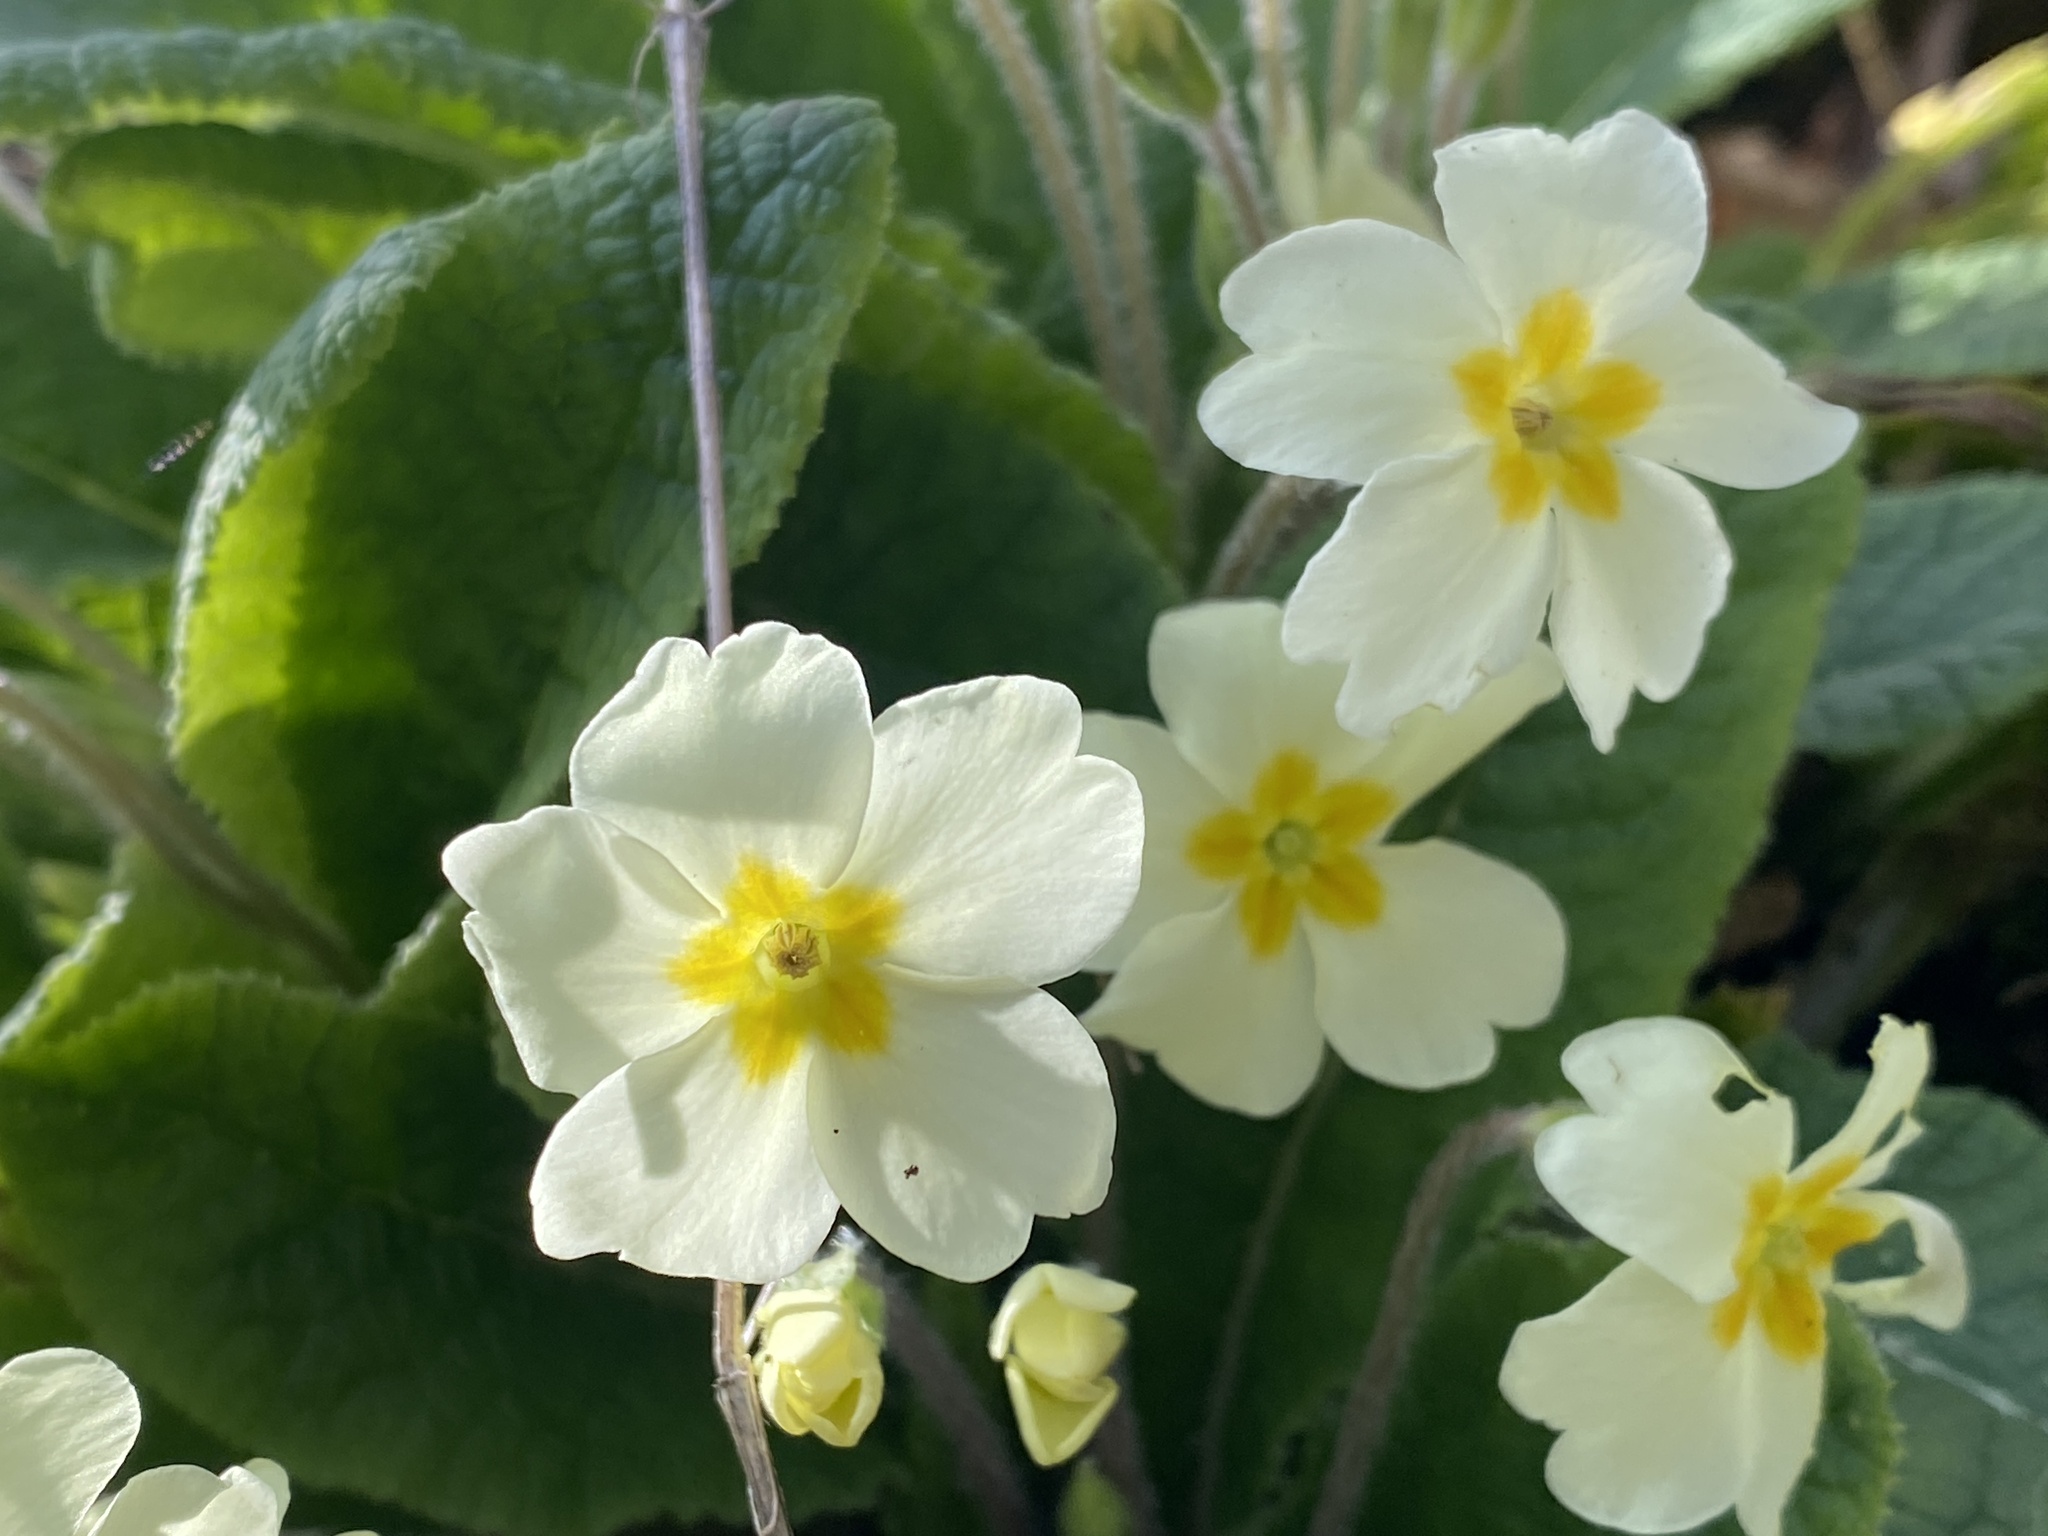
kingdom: Plantae
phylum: Tracheophyta
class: Magnoliopsida
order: Ericales
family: Primulaceae
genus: Primula
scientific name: Primula vulgaris
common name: Primrose
